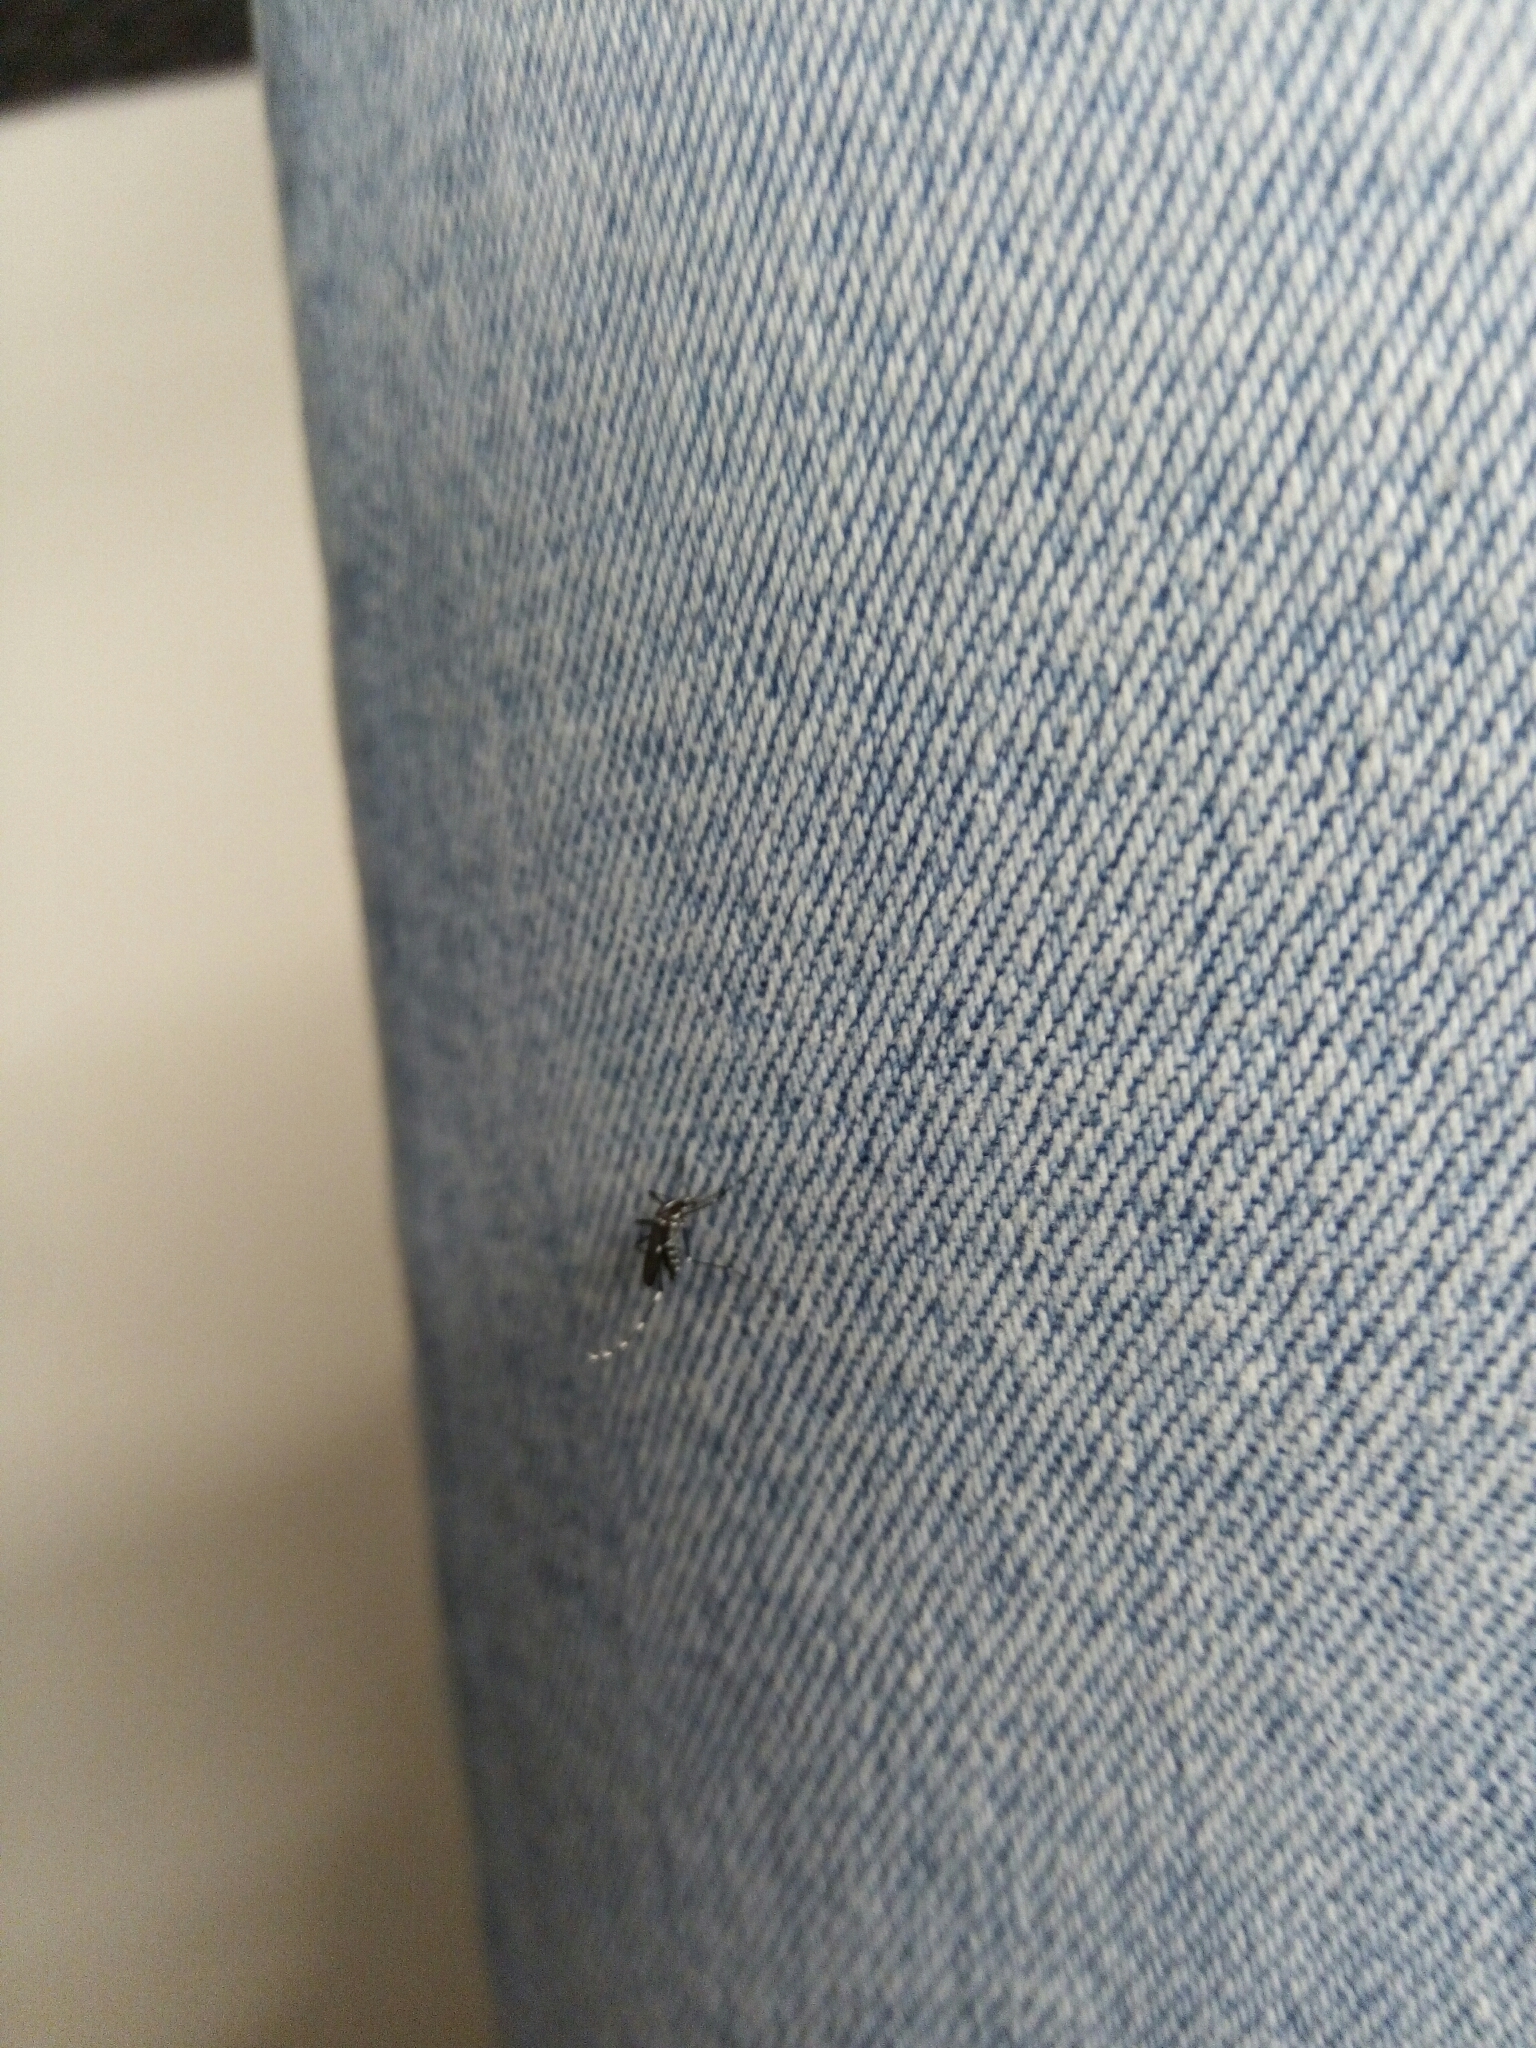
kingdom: Animalia
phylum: Arthropoda
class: Insecta
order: Diptera
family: Culicidae
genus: Aedes
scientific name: Aedes albopictus
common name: Tiger mosquito
